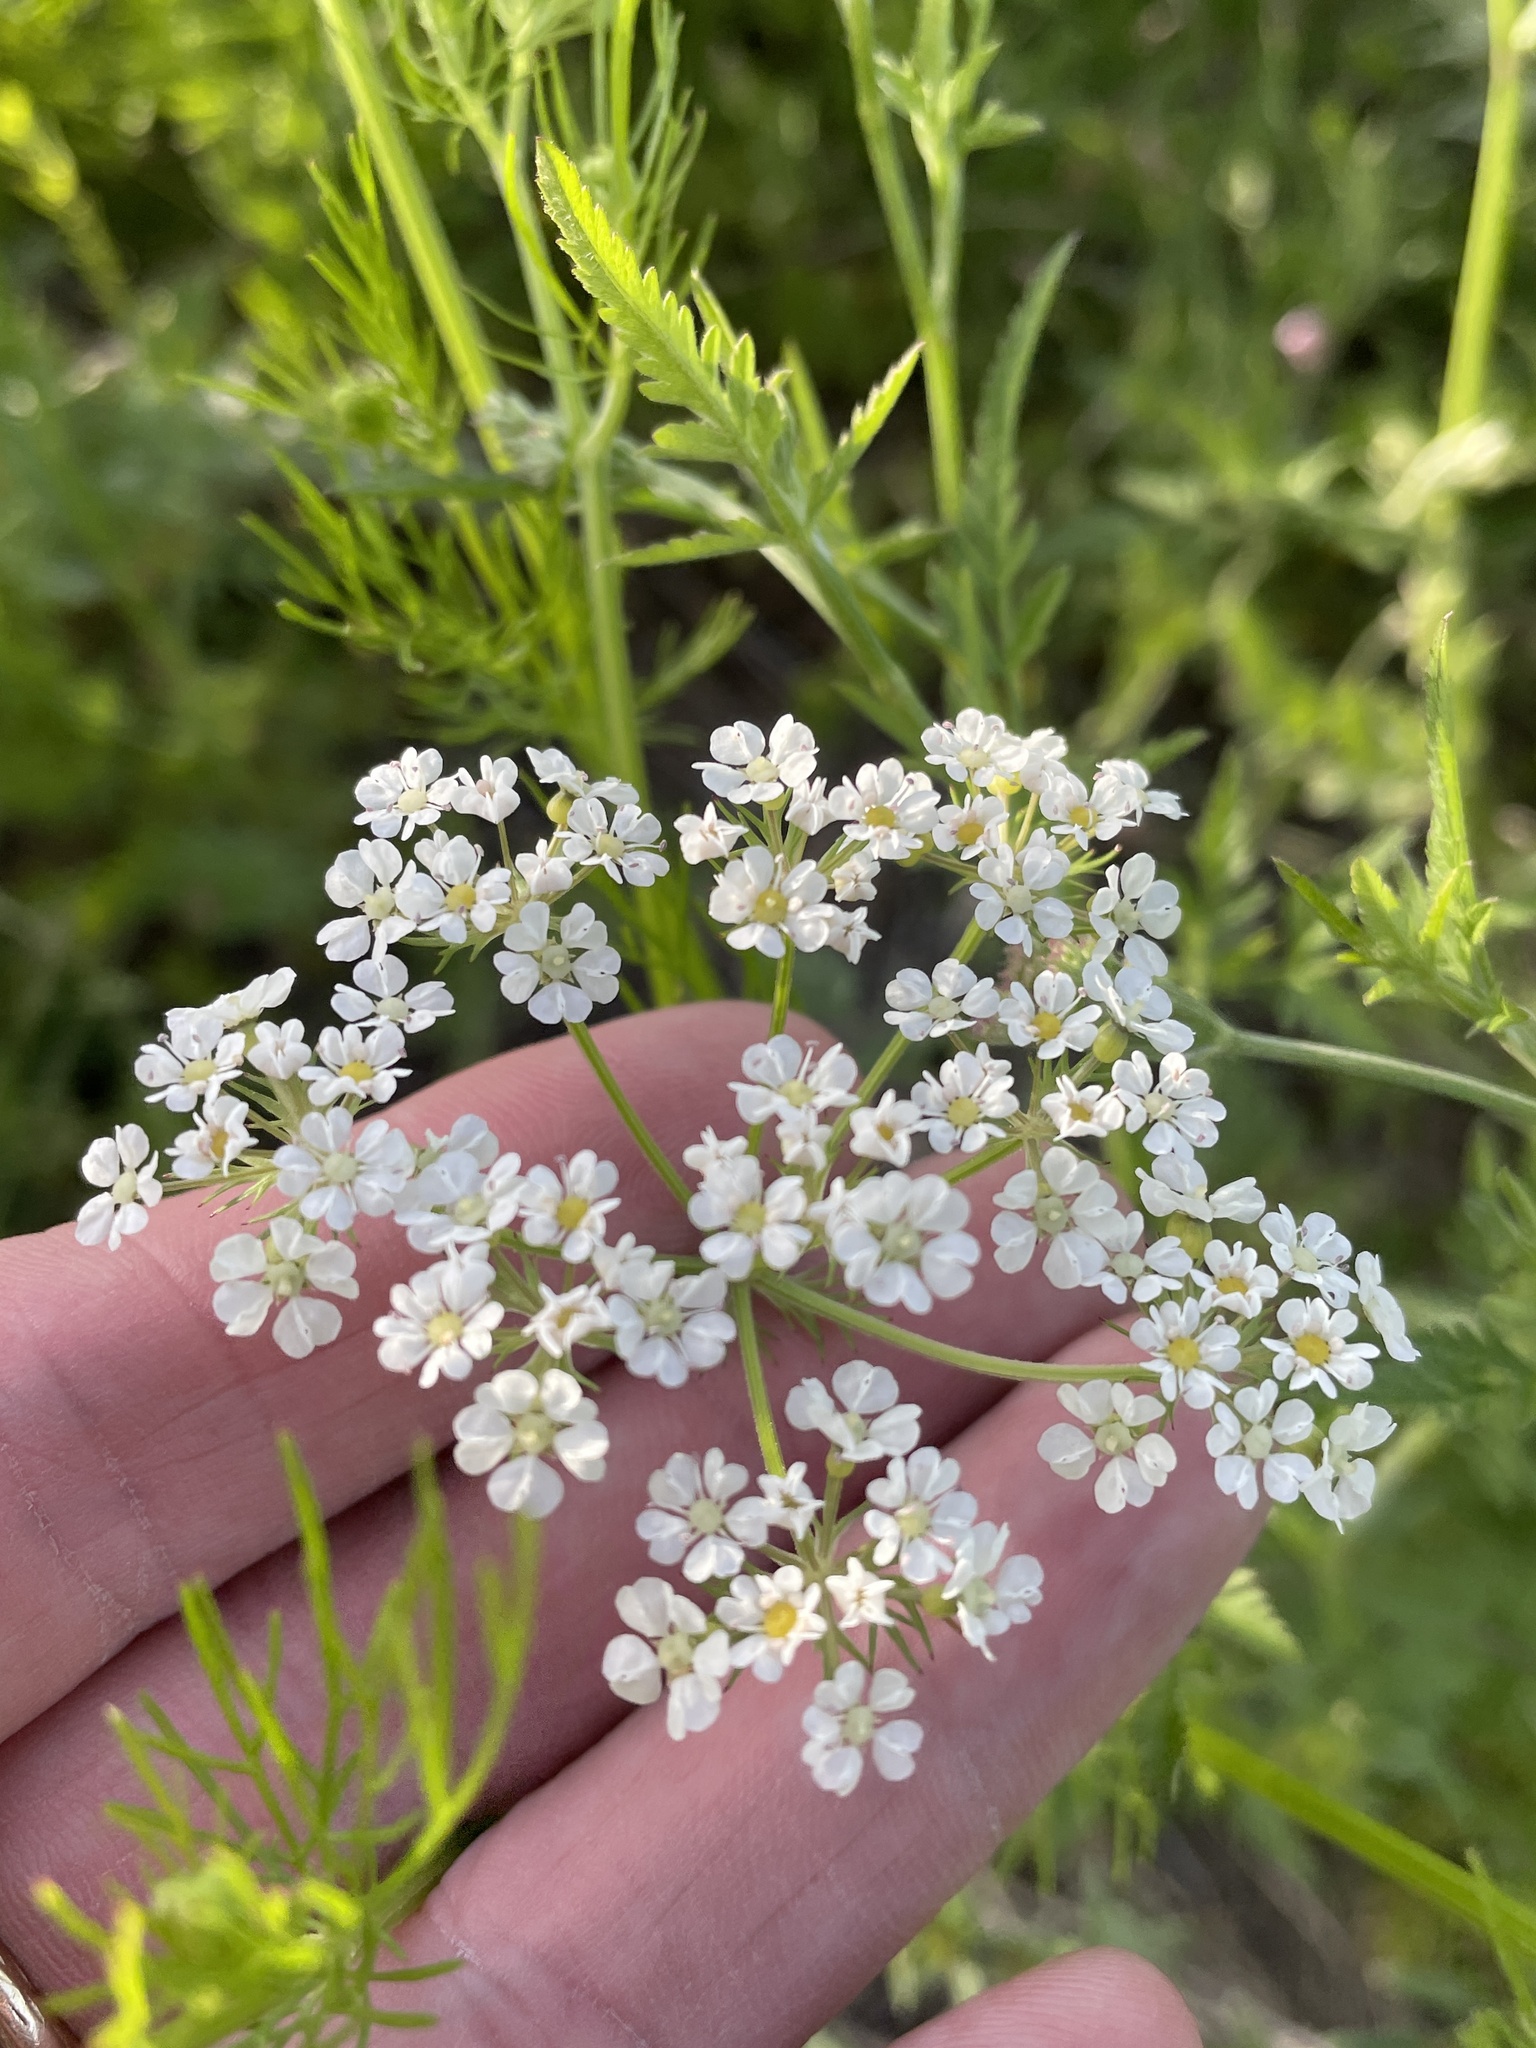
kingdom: Plantae
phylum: Tracheophyta
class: Magnoliopsida
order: Apiales
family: Apiaceae
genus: Atrema
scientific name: Atrema americanum
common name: Prairie-bishop
